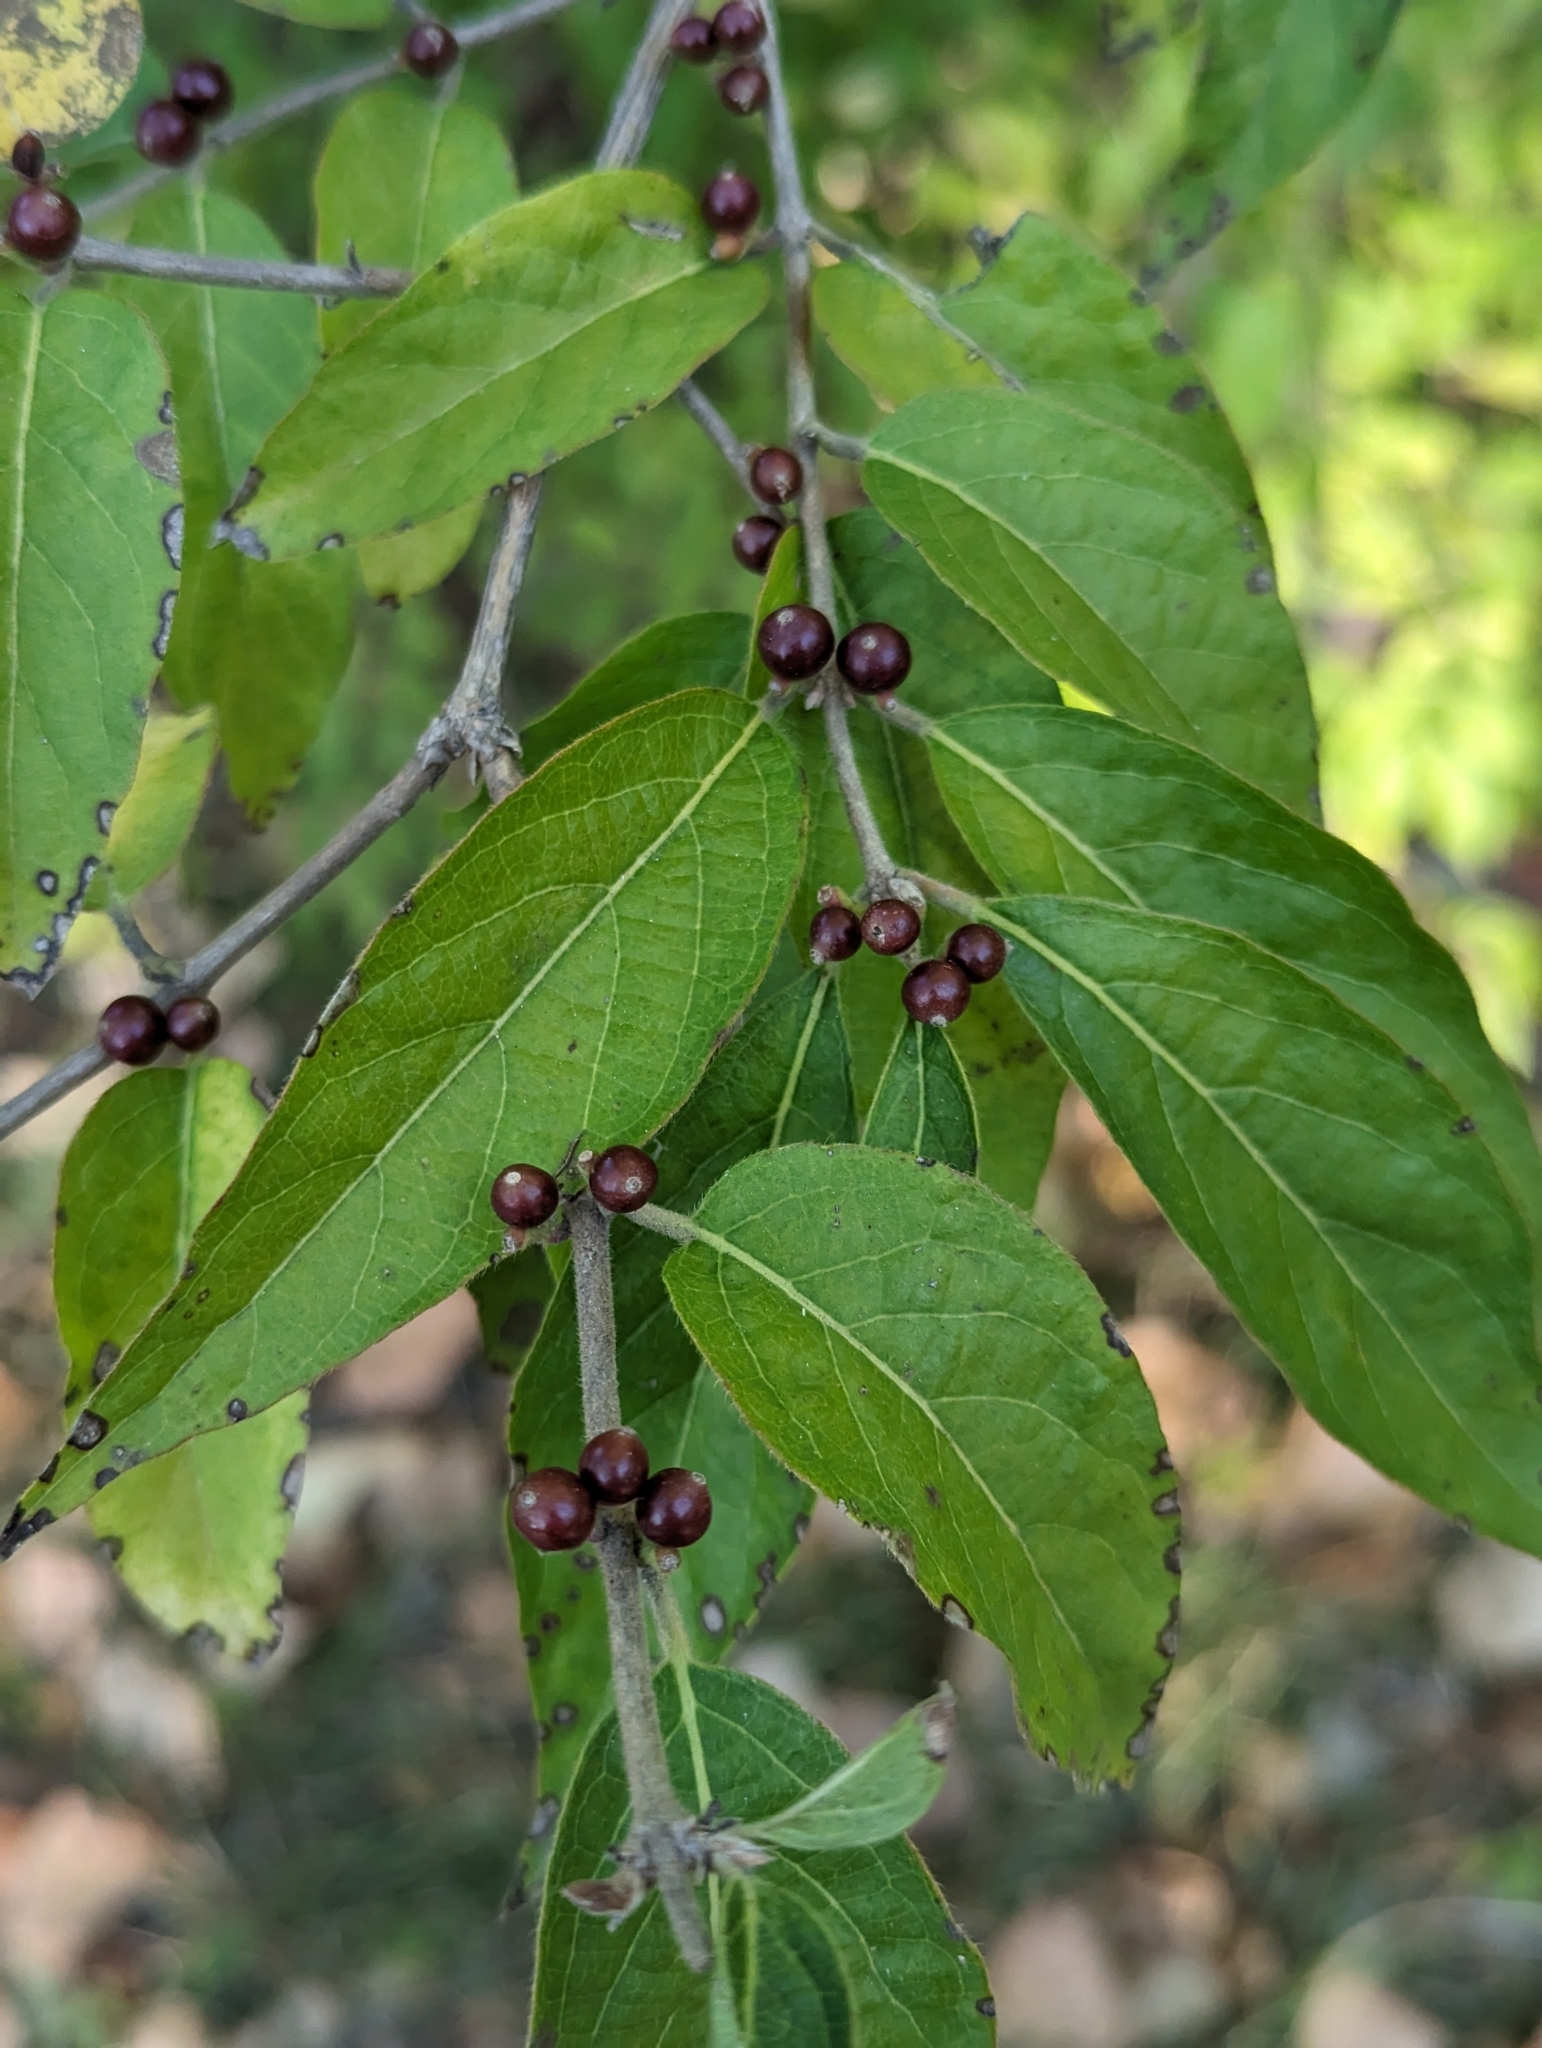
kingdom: Plantae
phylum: Tracheophyta
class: Magnoliopsida
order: Dipsacales
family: Caprifoliaceae
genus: Lonicera
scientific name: Lonicera maackii
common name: Amur honeysuckle
